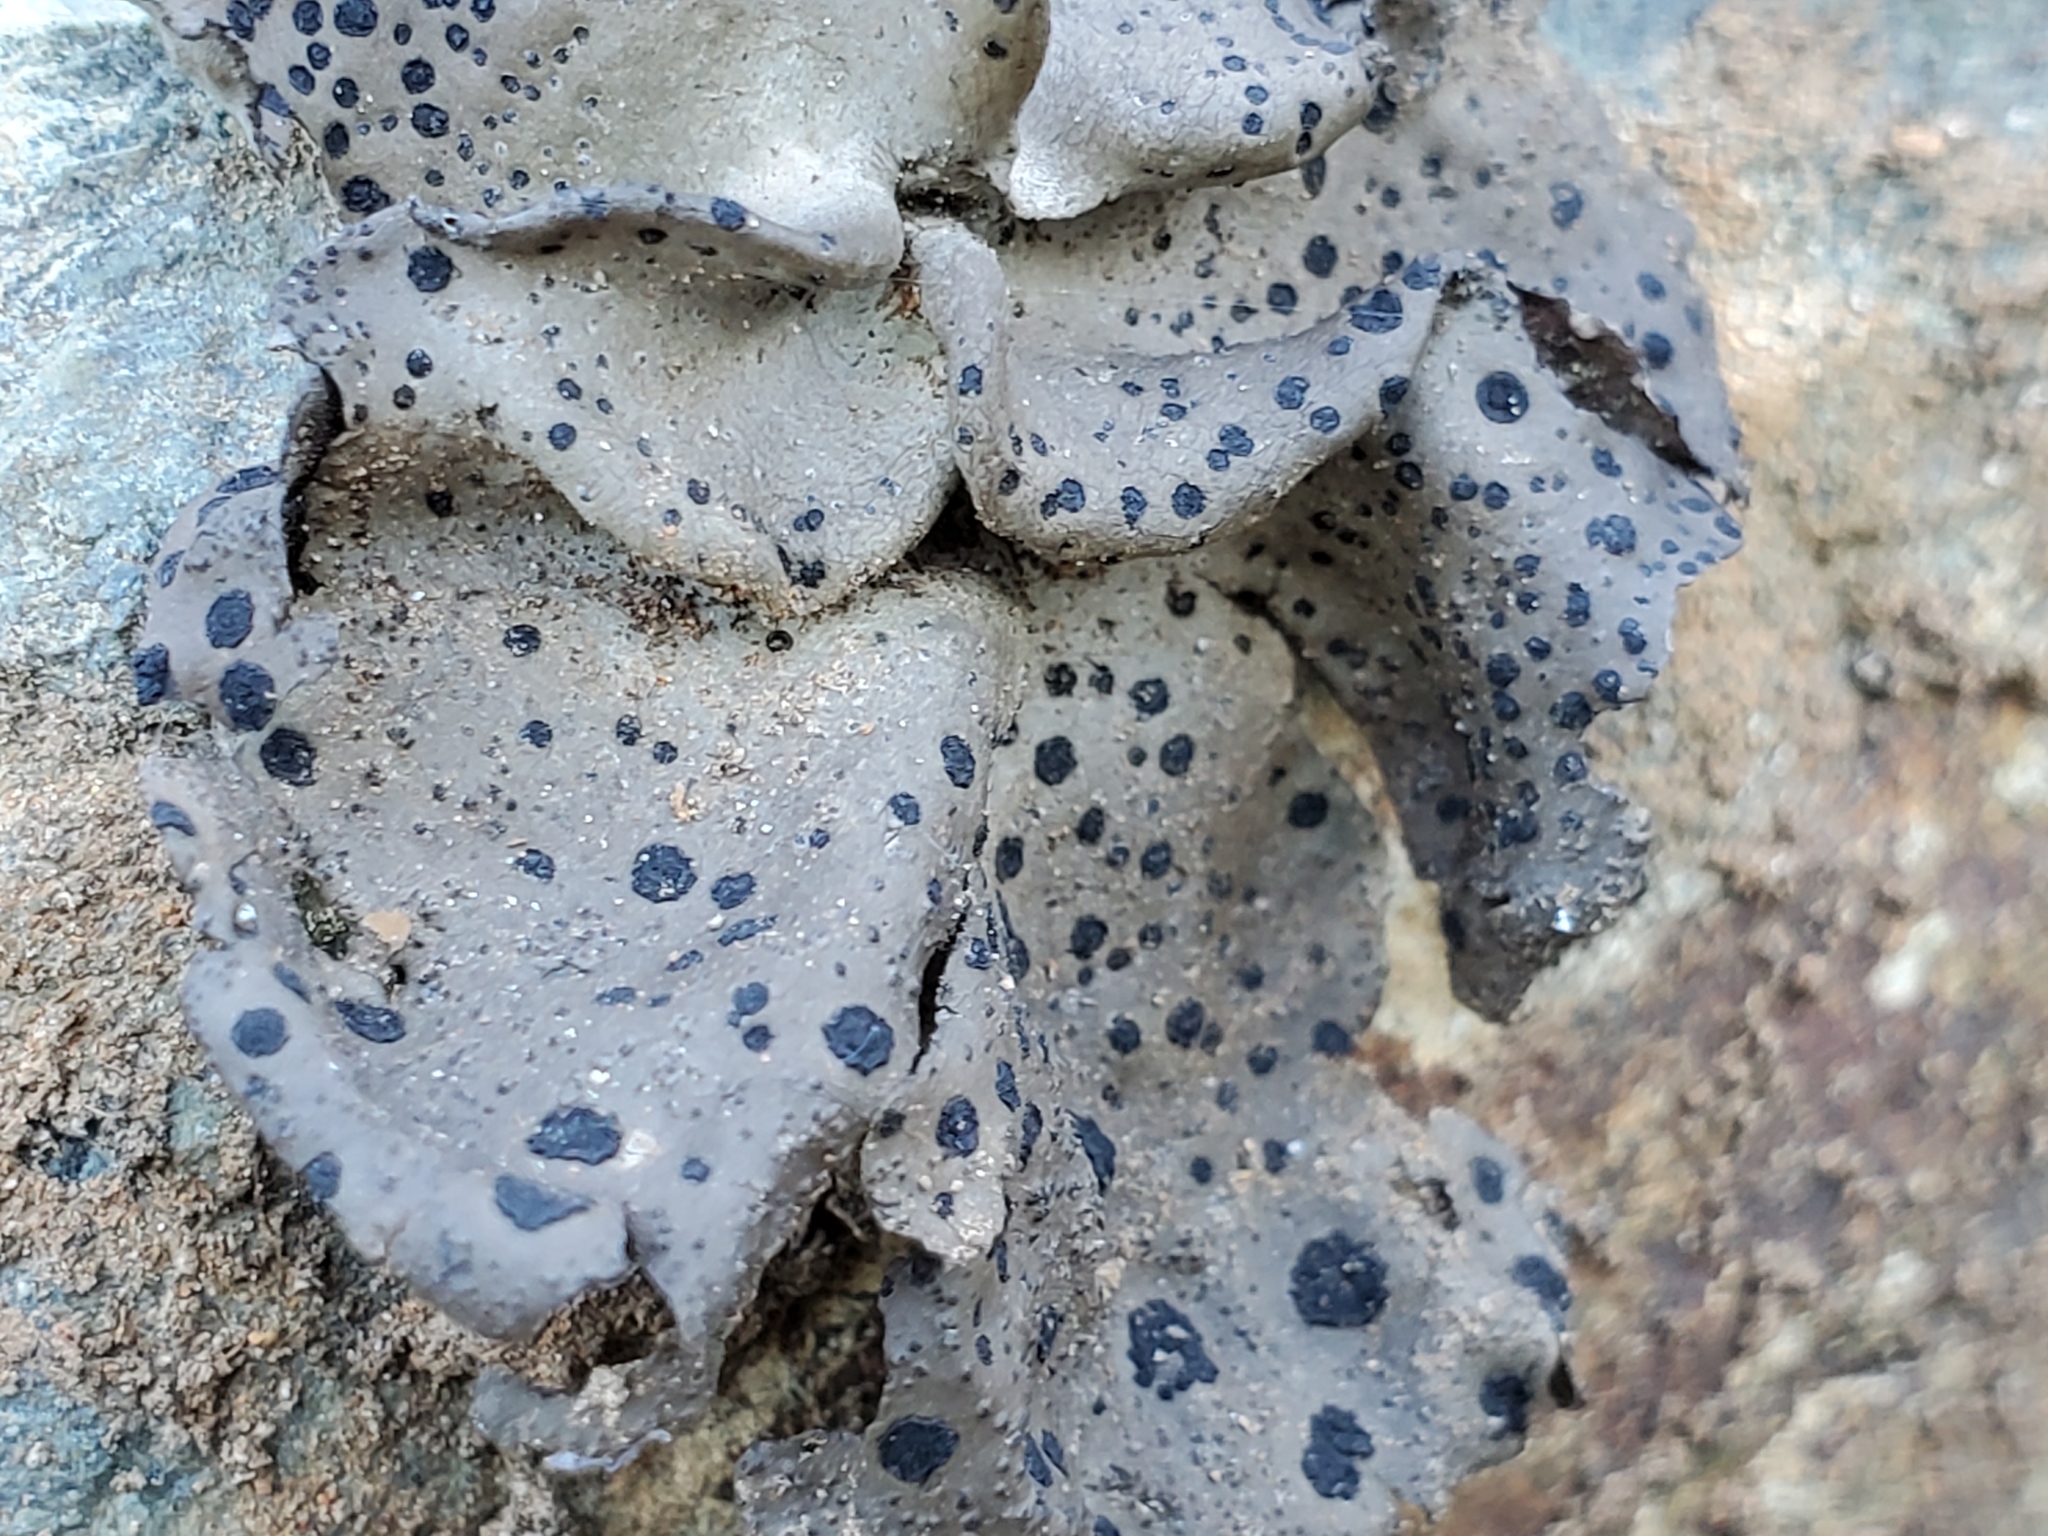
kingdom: Fungi
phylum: Ascomycota
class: Lecanoromycetes
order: Umbilicariales
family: Umbilicariaceae
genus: Umbilicaria
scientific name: Umbilicaria phaea
